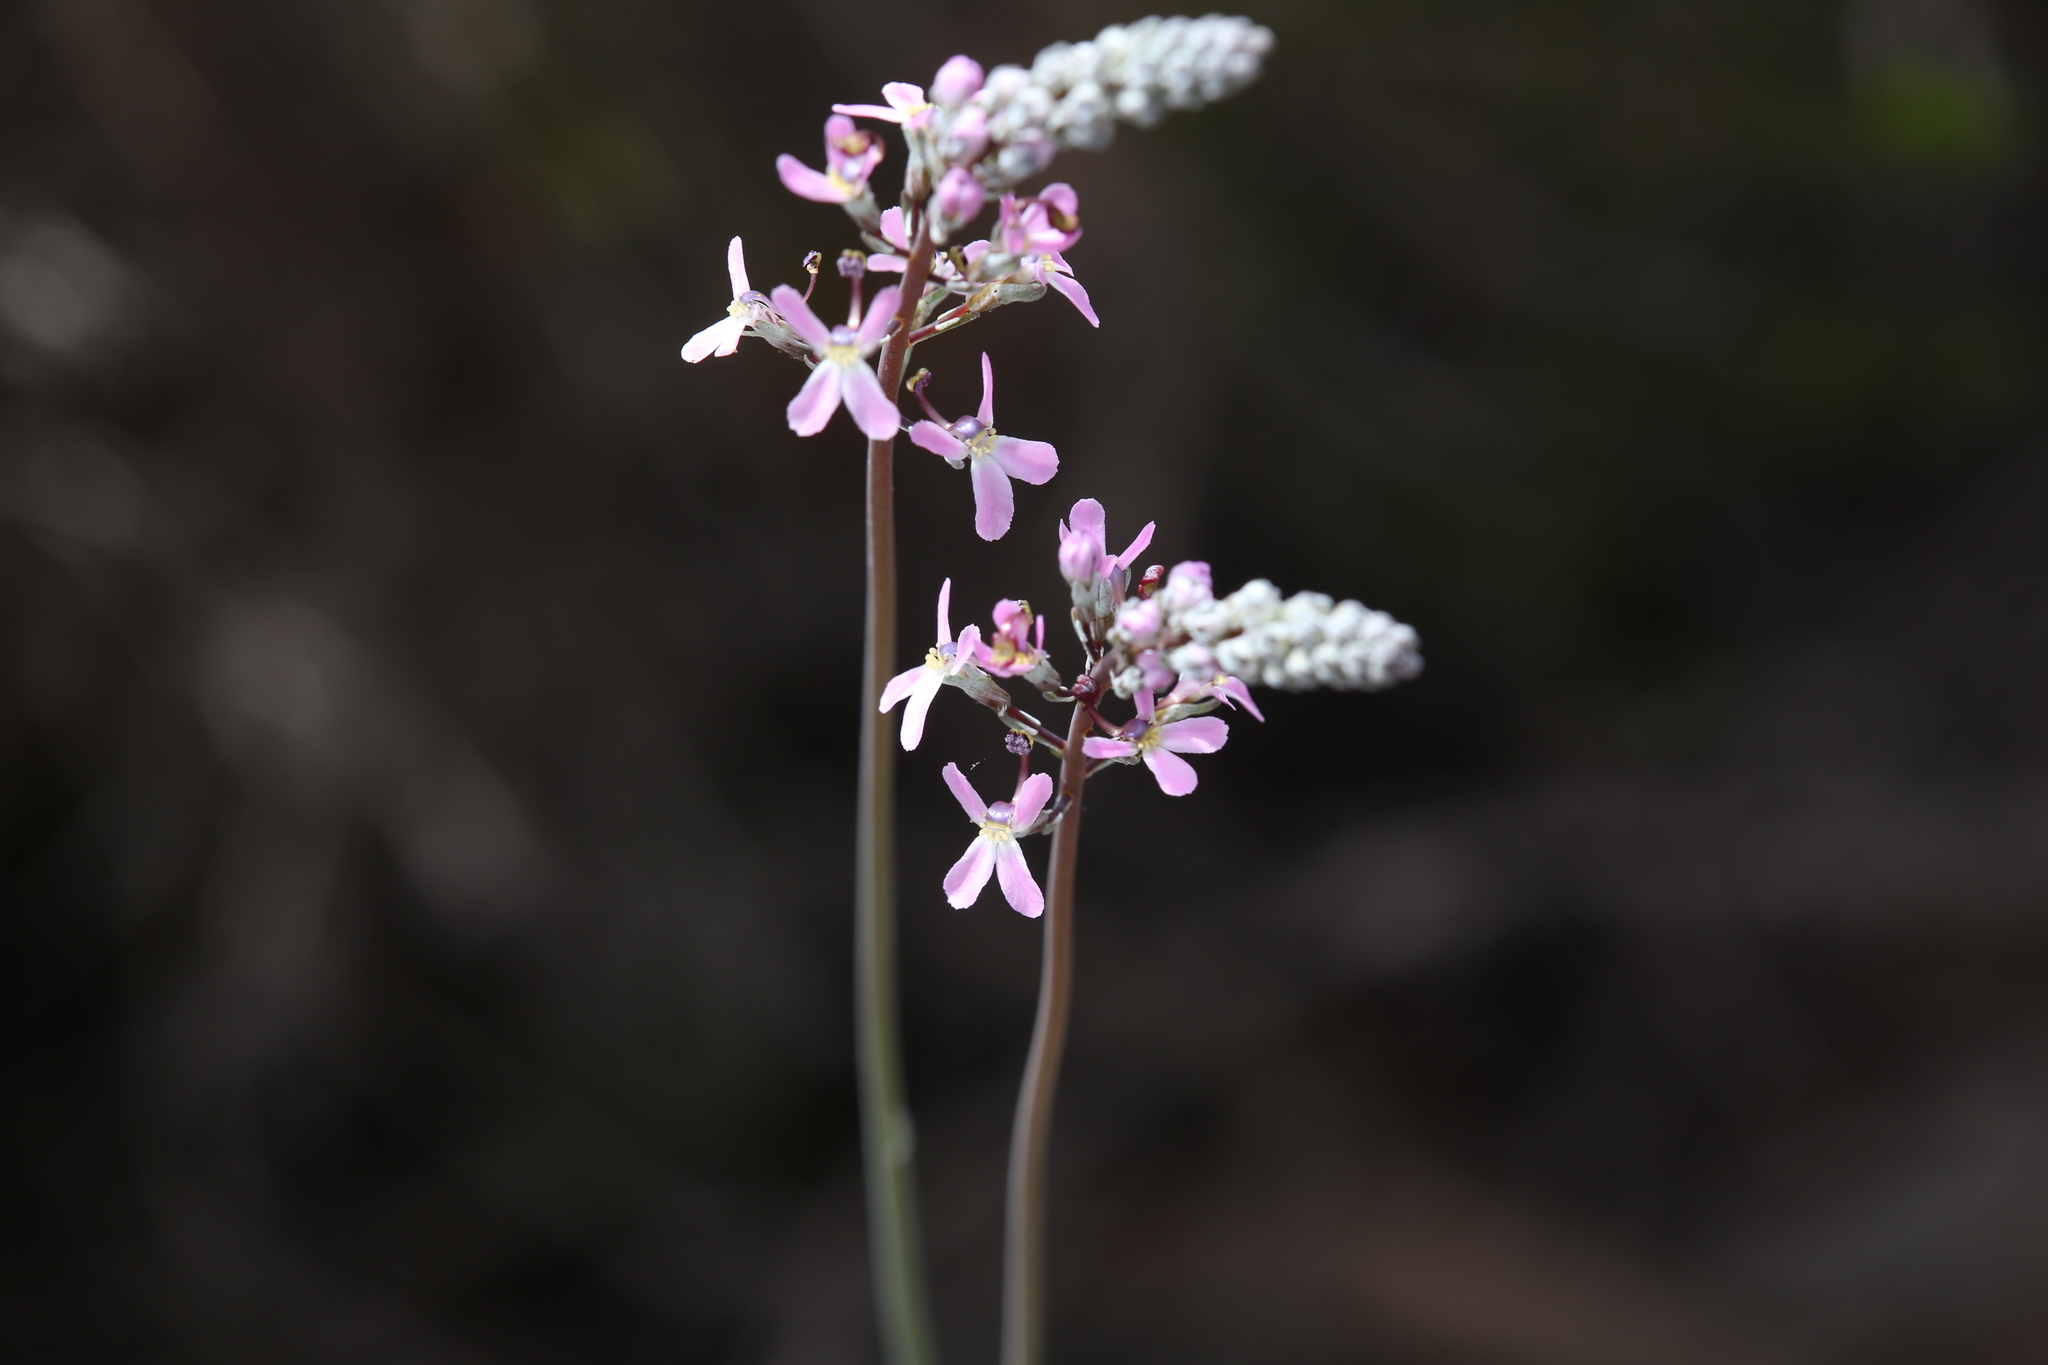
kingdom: Plantae
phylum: Tracheophyta
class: Magnoliopsida
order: Asterales
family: Stylidiaceae
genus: Stylidium
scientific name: Stylidium araeophyllum
